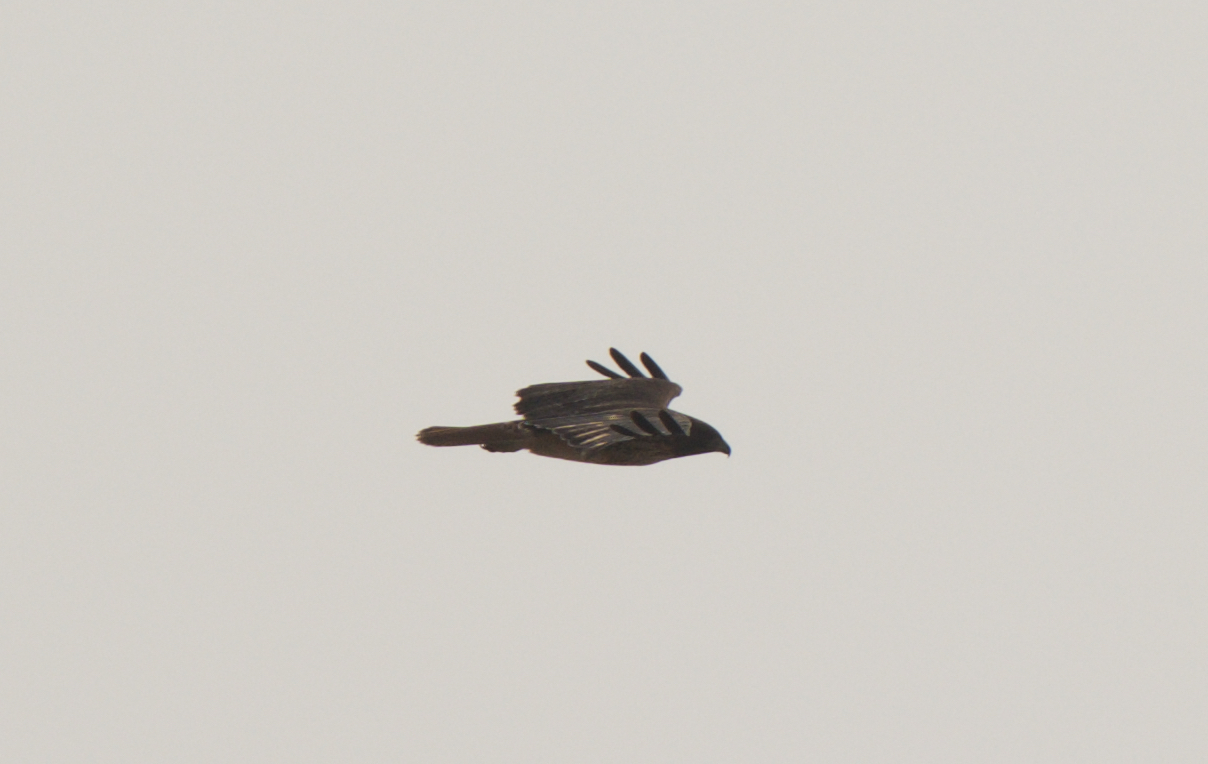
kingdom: Animalia
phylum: Chordata
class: Aves
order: Accipitriformes
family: Accipitridae
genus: Buteo
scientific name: Buteo jamaicensis
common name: Red-tailed hawk
